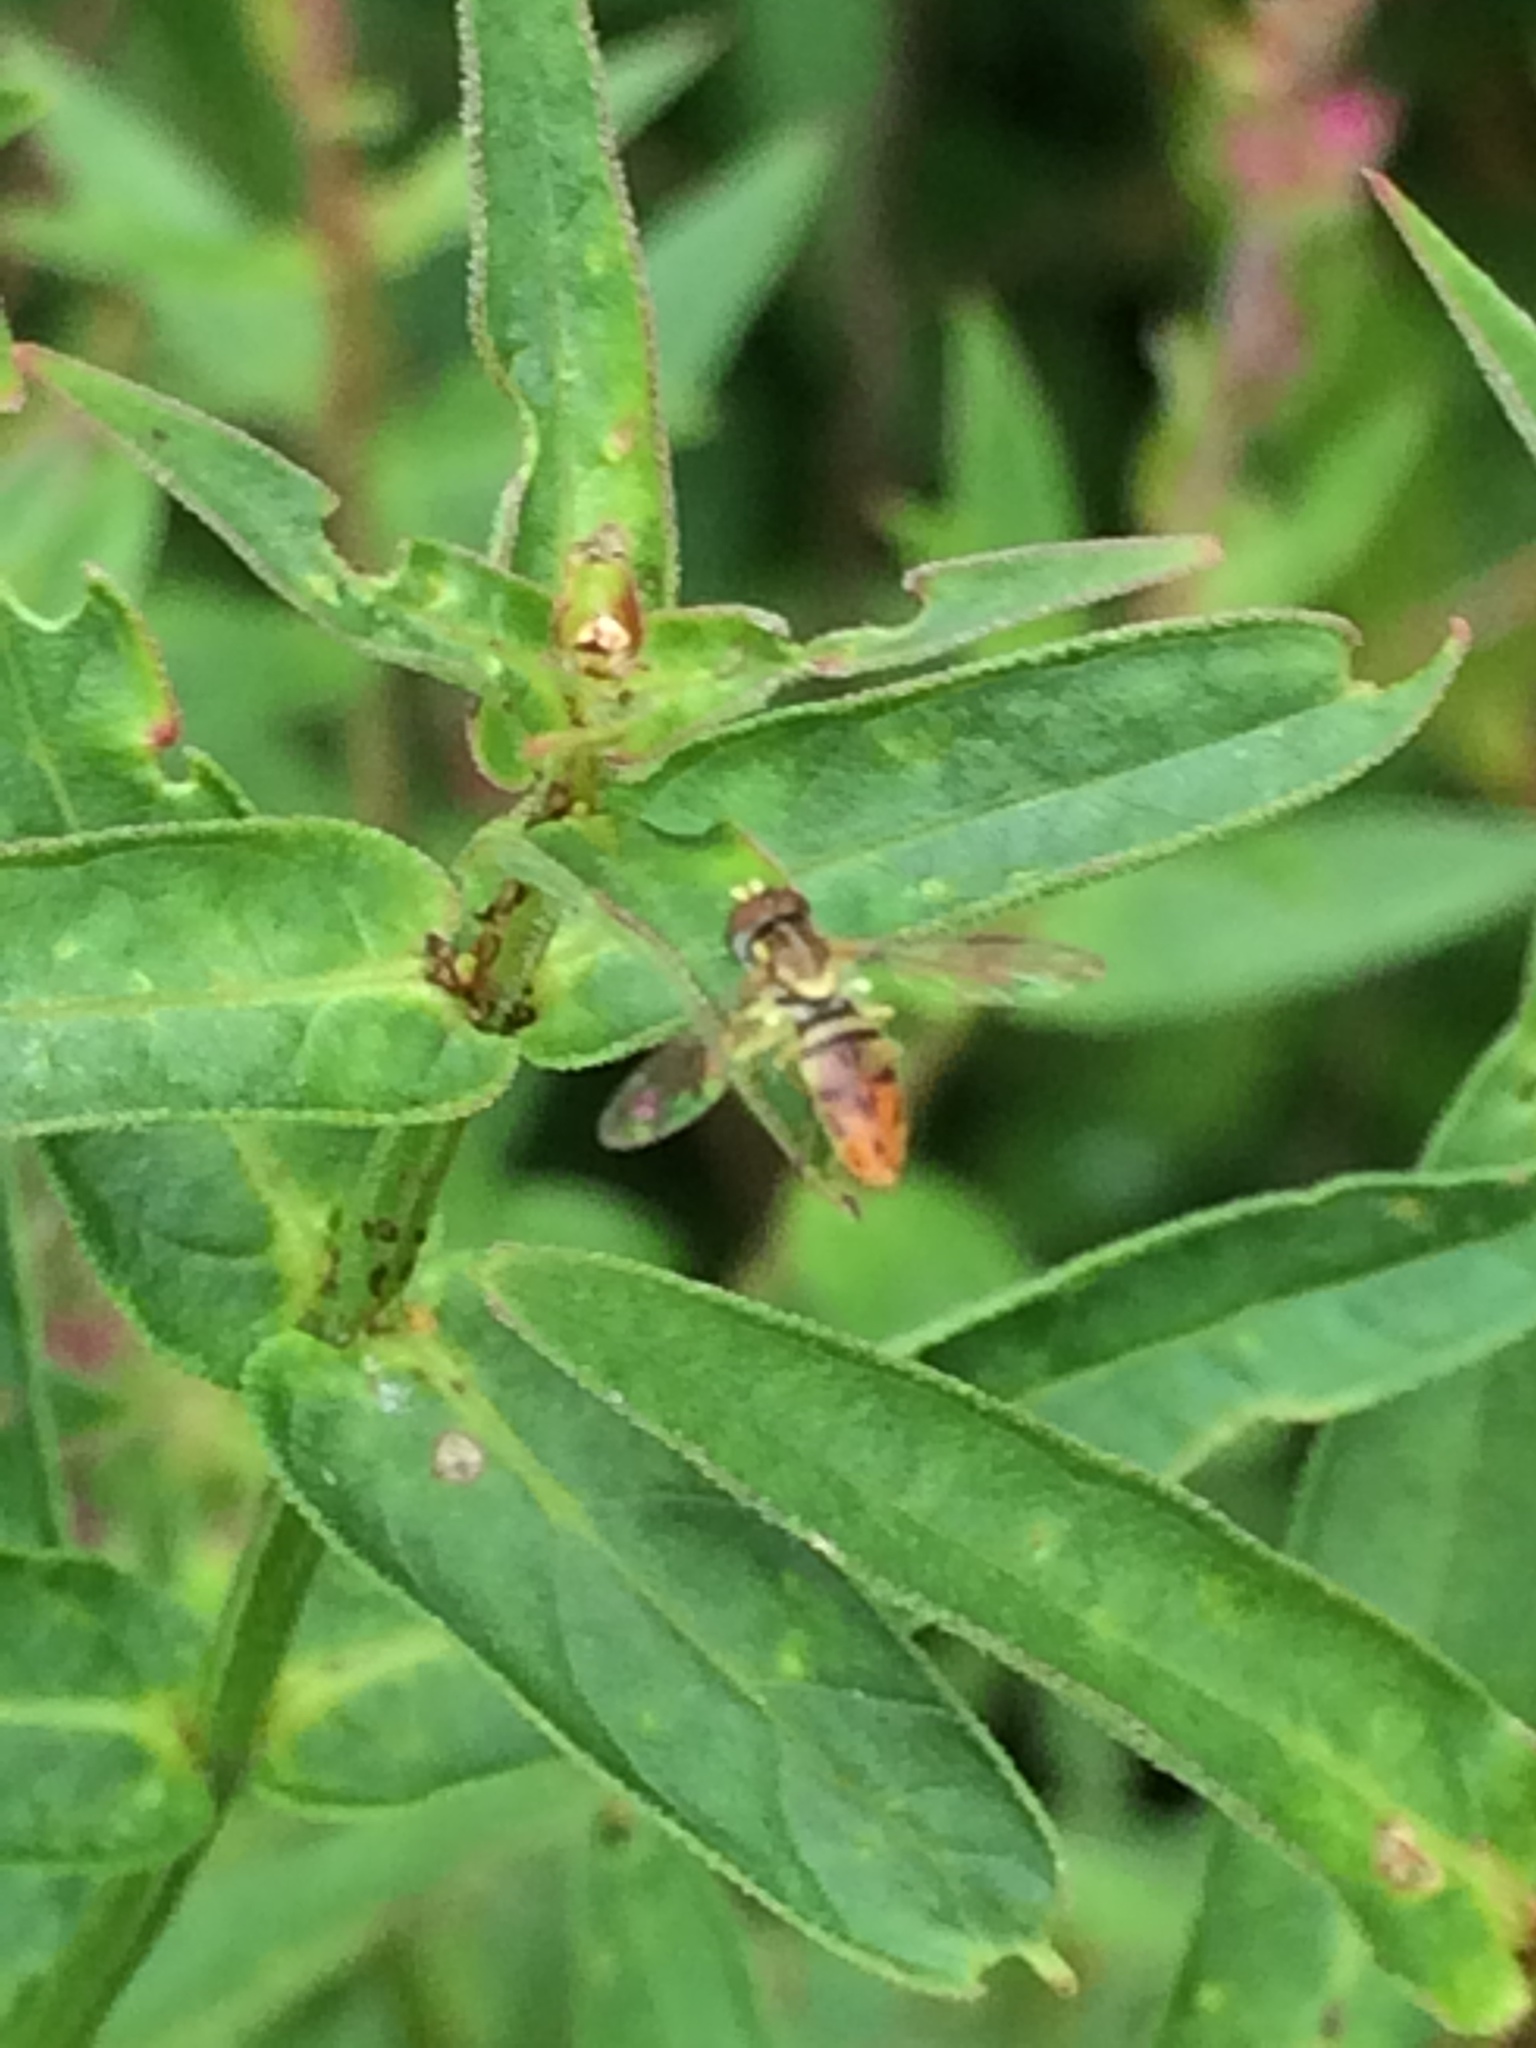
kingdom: Animalia
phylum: Arthropoda
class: Insecta
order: Diptera
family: Syrphidae
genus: Toxomerus
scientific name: Toxomerus marginatus
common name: Syrphid fly
